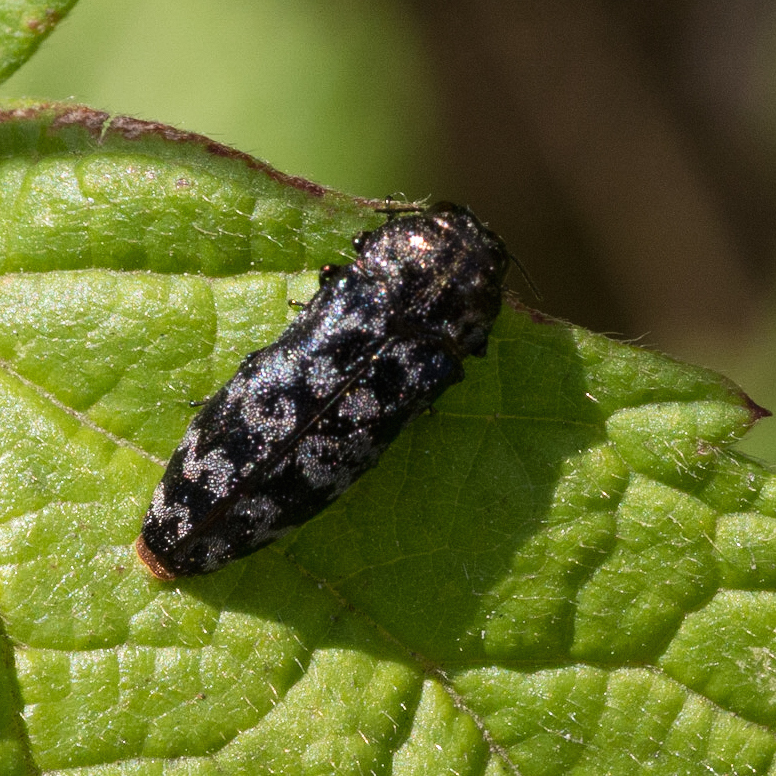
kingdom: Animalia
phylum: Arthropoda
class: Insecta
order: Coleoptera
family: Buprestidae
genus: Coraebus
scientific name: Coraebus rubi
